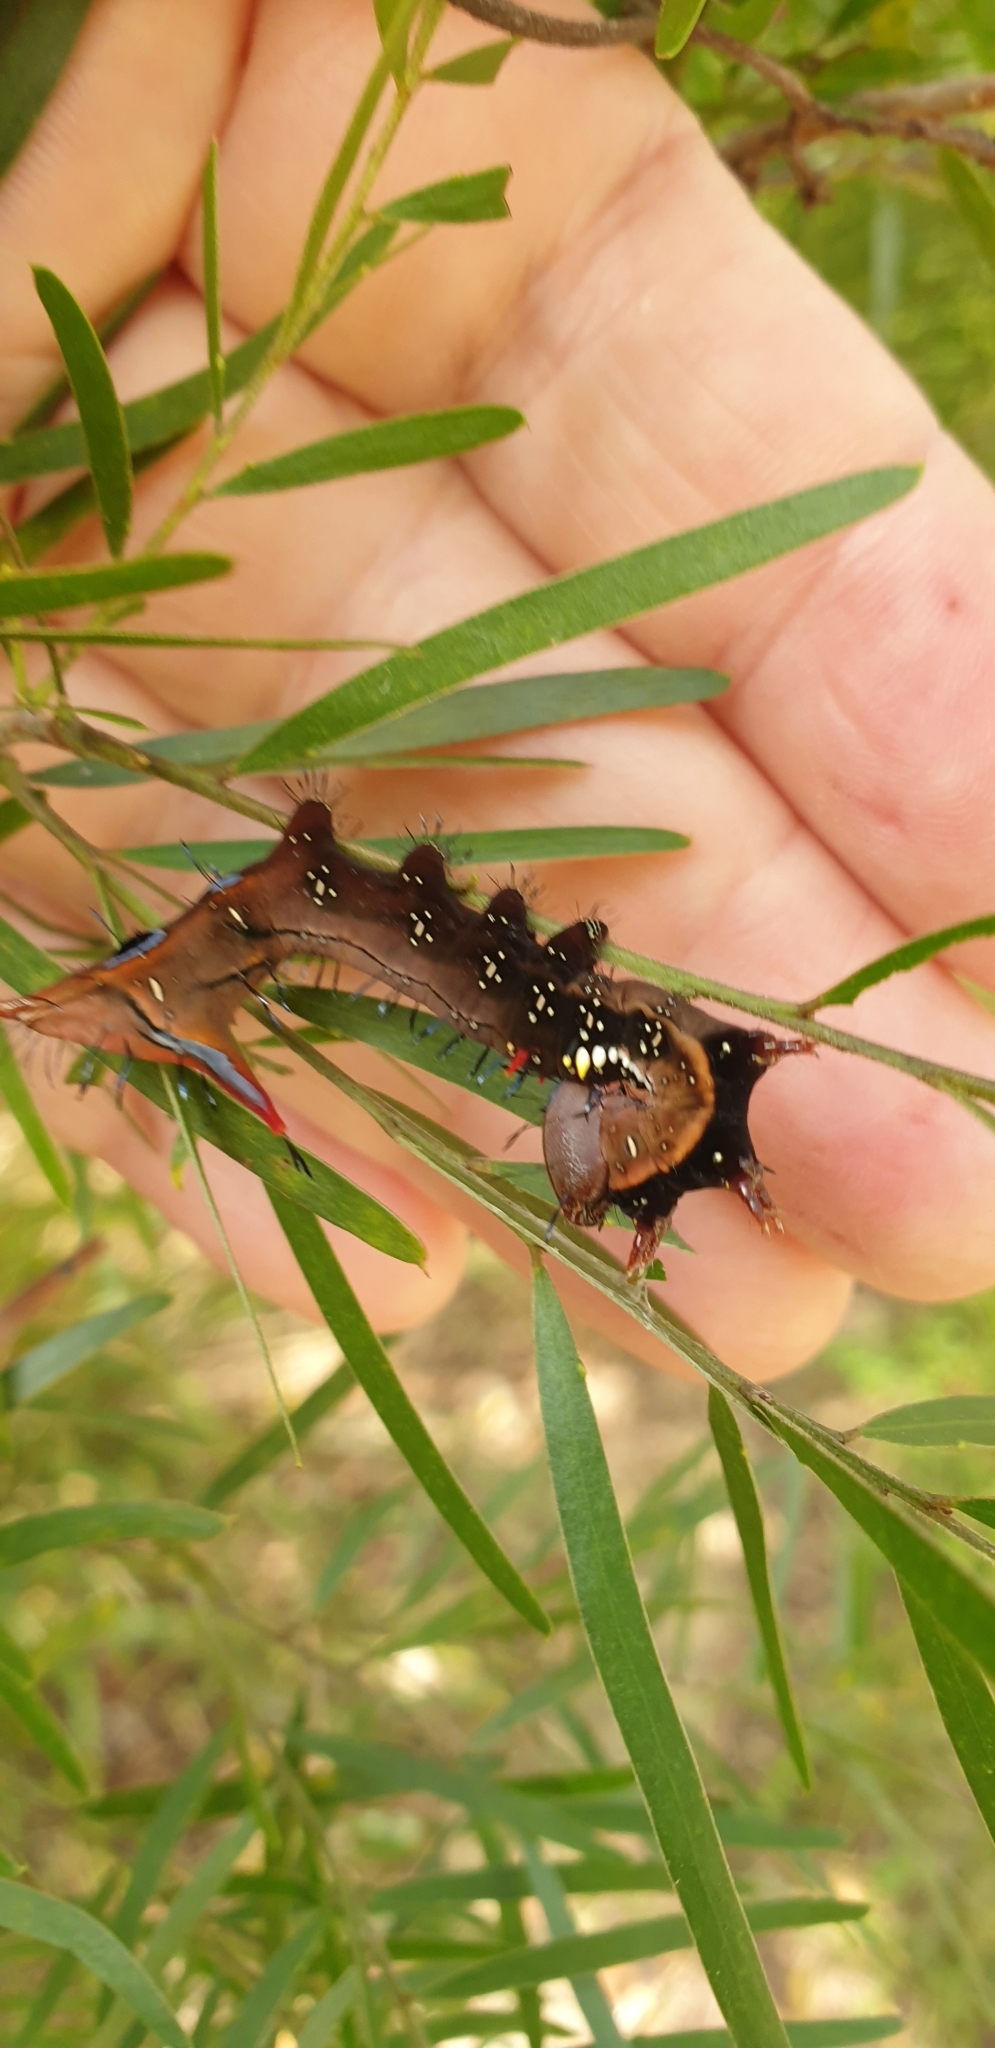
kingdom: Animalia
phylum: Arthropoda
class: Insecta
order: Lepidoptera
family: Notodontidae
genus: Neola
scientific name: Neola semiaurata
